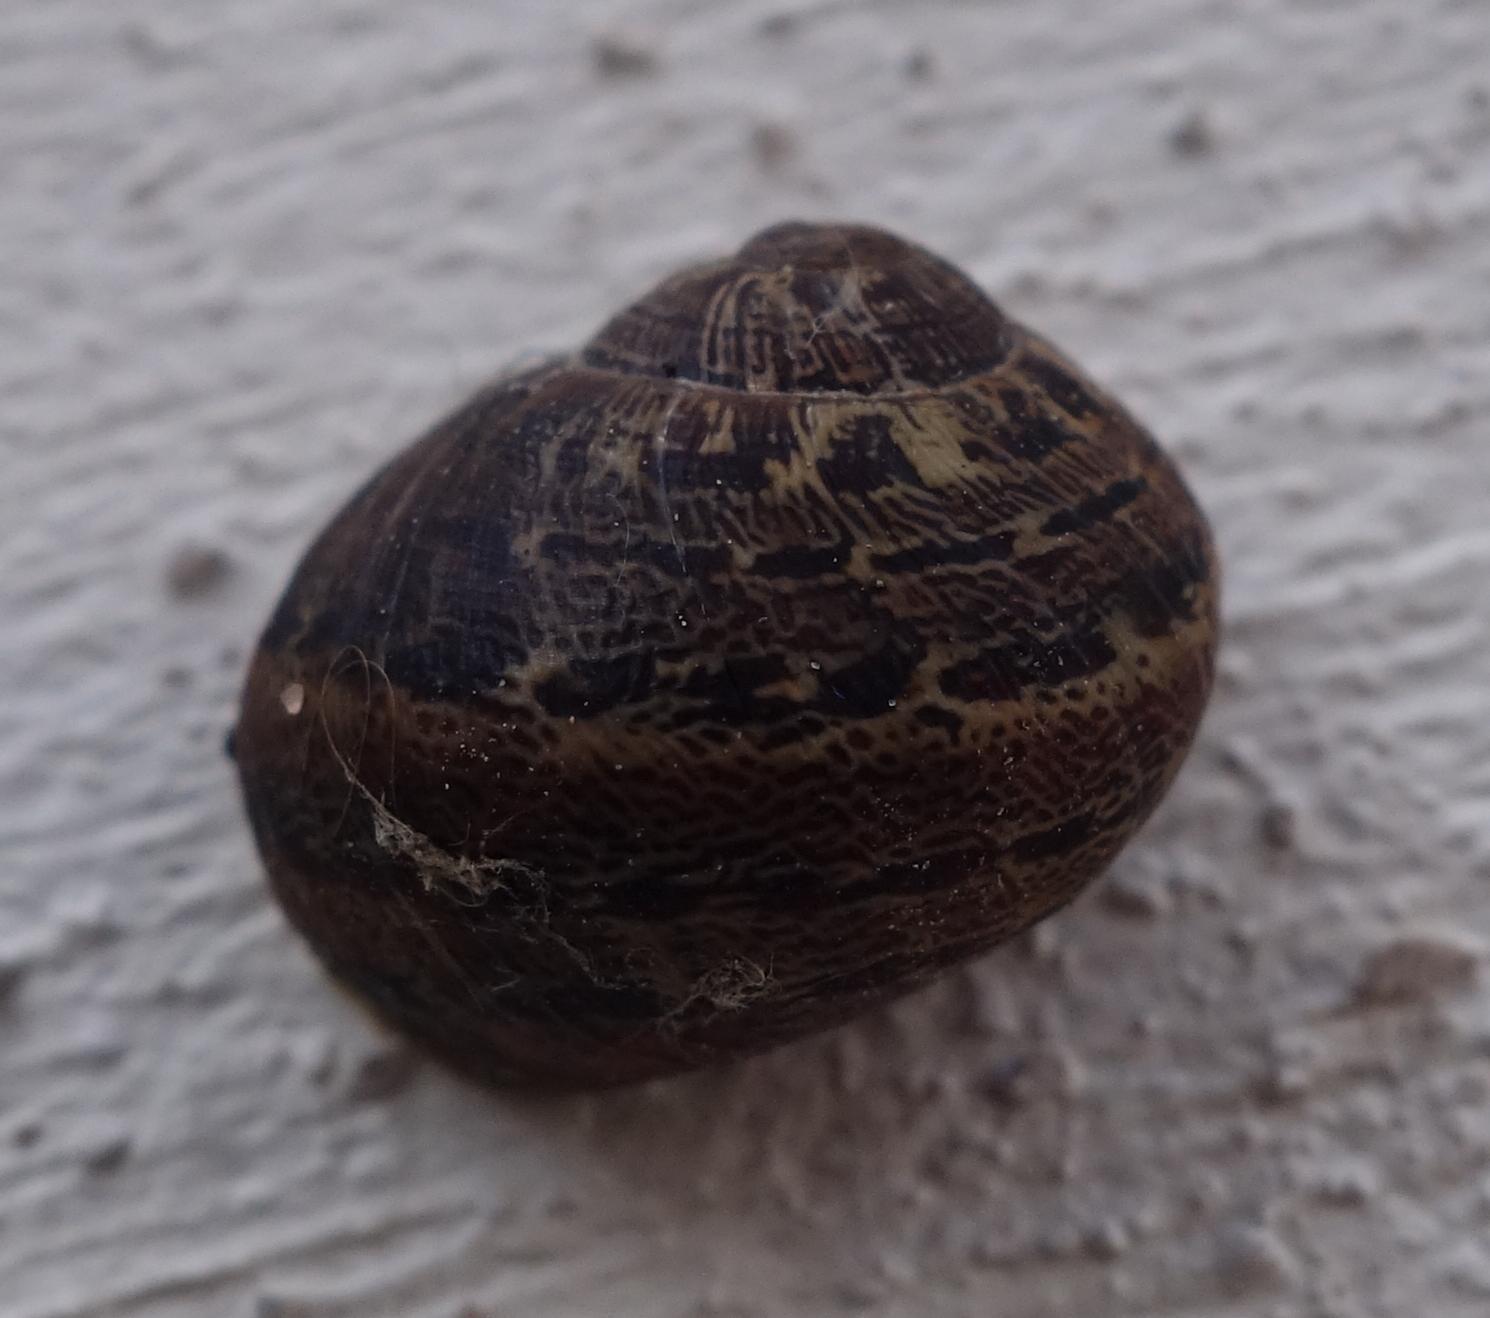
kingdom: Animalia
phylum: Mollusca
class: Gastropoda
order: Stylommatophora
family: Helicidae
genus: Cornu
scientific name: Cornu aspersum
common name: Brown garden snail
